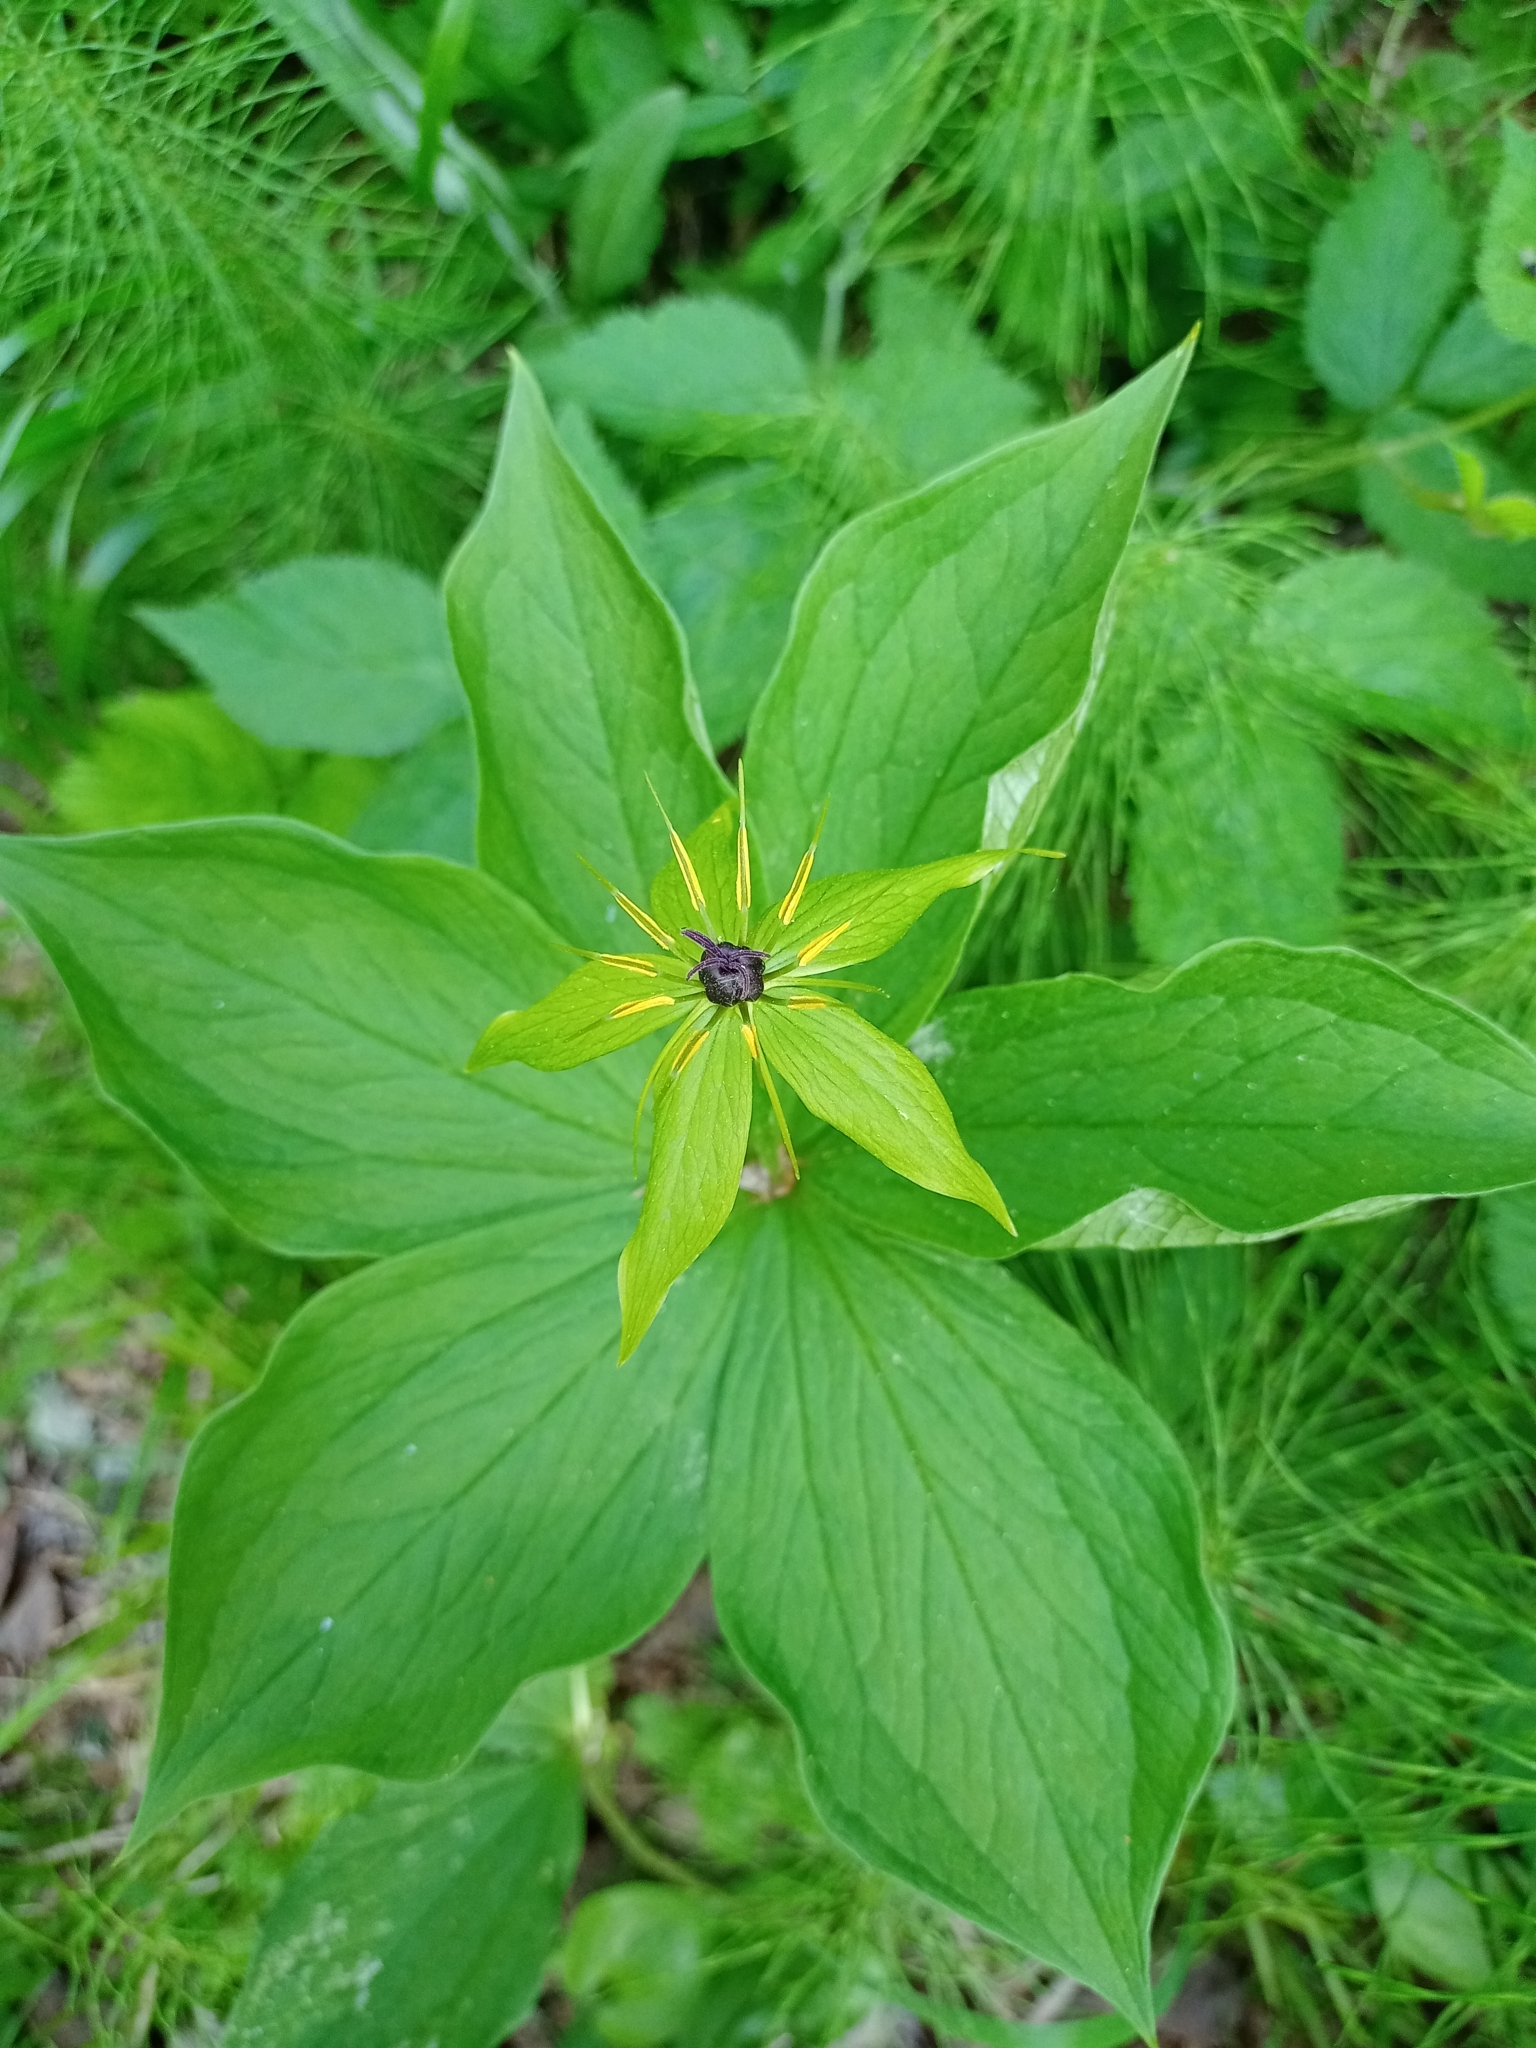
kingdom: Plantae
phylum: Tracheophyta
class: Liliopsida
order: Liliales
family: Melanthiaceae
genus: Paris
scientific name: Paris verticillata
